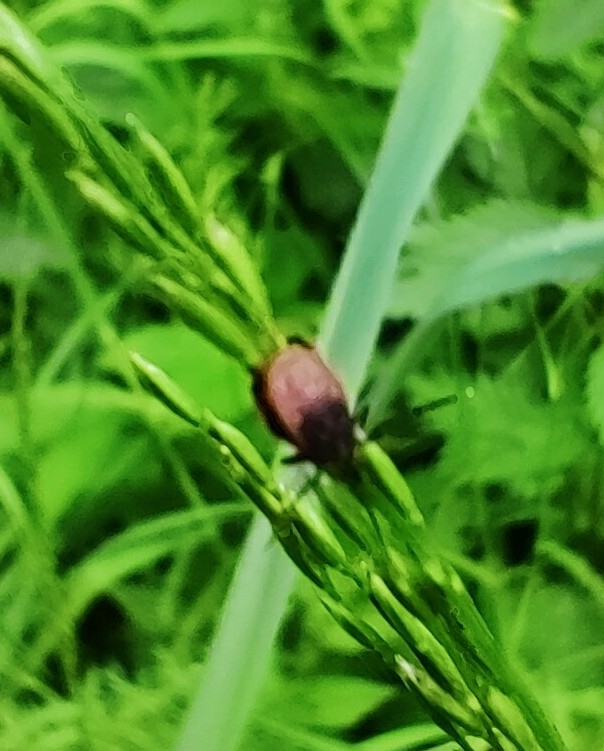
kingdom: Animalia
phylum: Arthropoda
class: Arachnida
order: Ixodida
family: Ixodidae
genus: Ixodes
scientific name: Ixodes ricinus
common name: Castor bean tick
